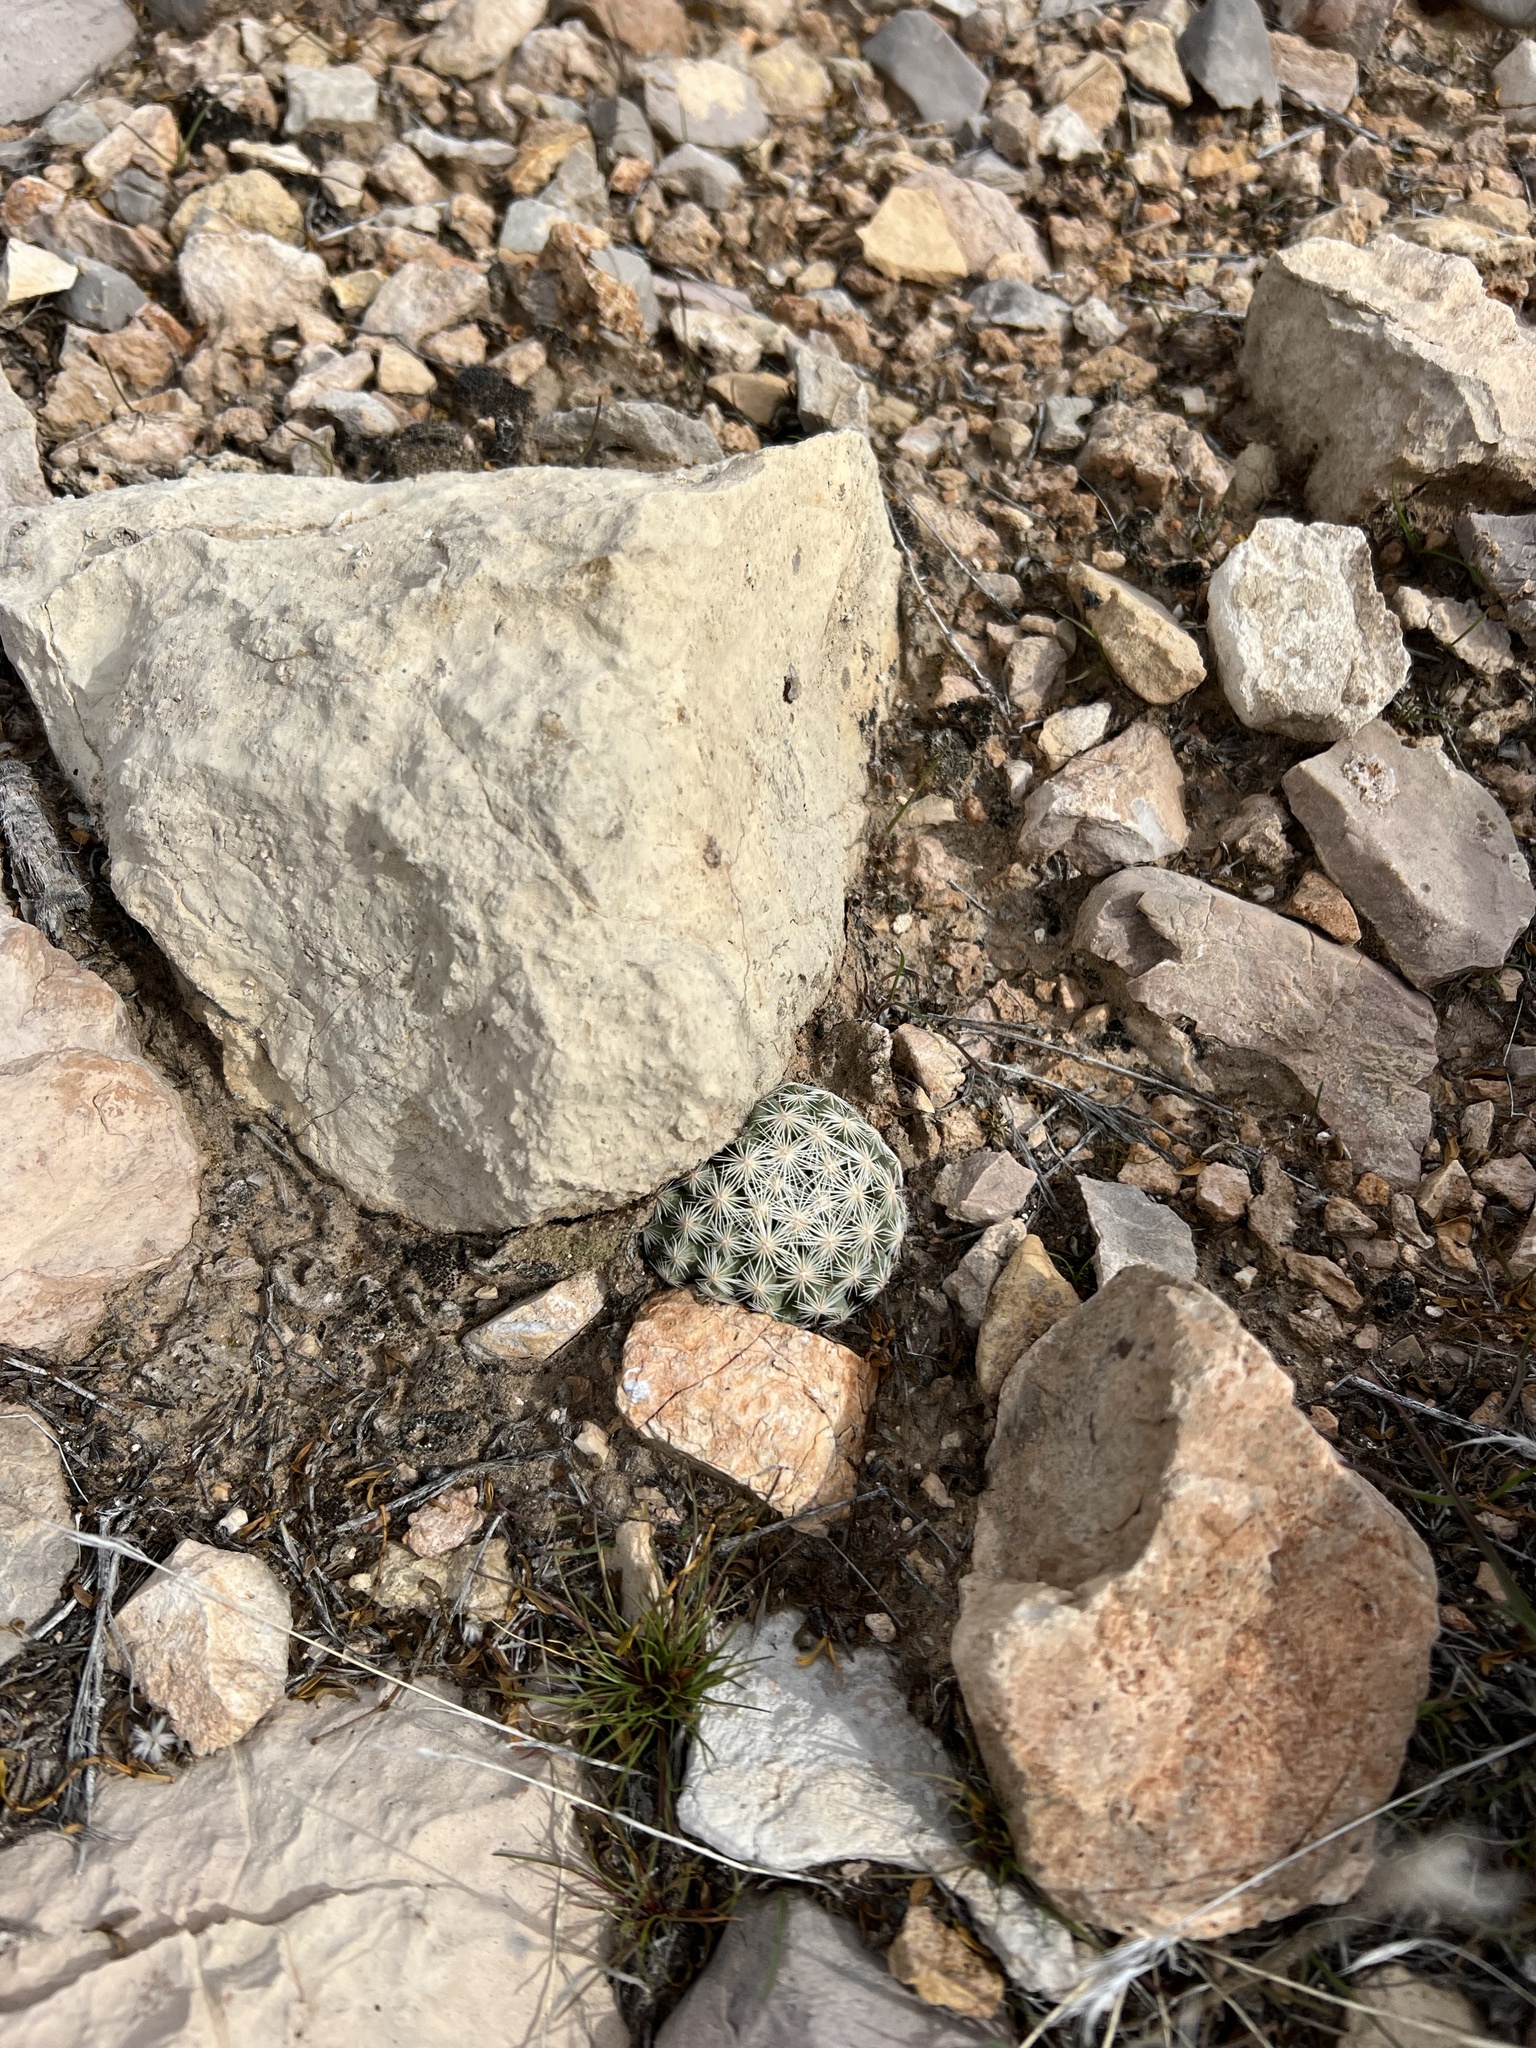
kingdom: Plantae
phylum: Tracheophyta
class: Magnoliopsida
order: Caryophyllales
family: Cactaceae
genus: Pelecyphora
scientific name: Pelecyphora dasyacantha
